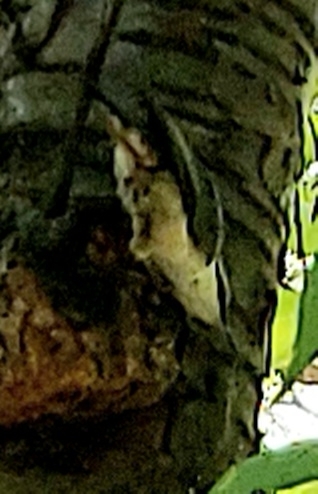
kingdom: Animalia
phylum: Chordata
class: Aves
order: Passeriformes
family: Sittidae
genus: Sitta
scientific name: Sitta europaea
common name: Eurasian nuthatch
